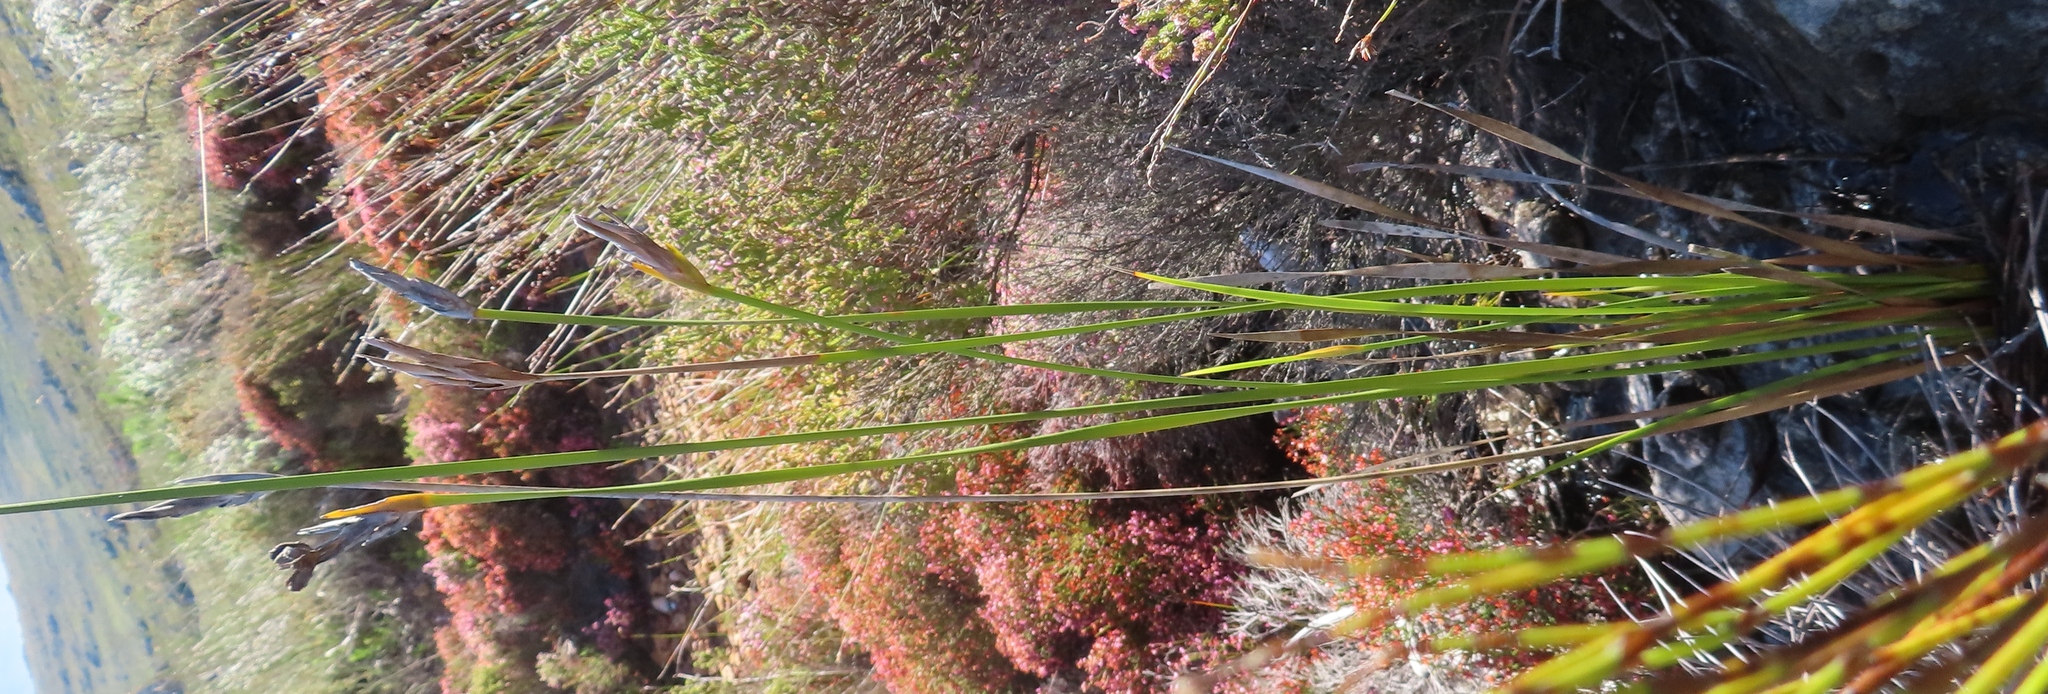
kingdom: Plantae
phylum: Tracheophyta
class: Liliopsida
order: Asparagales
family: Iridaceae
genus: Bobartia
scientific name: Bobartia gladiata
